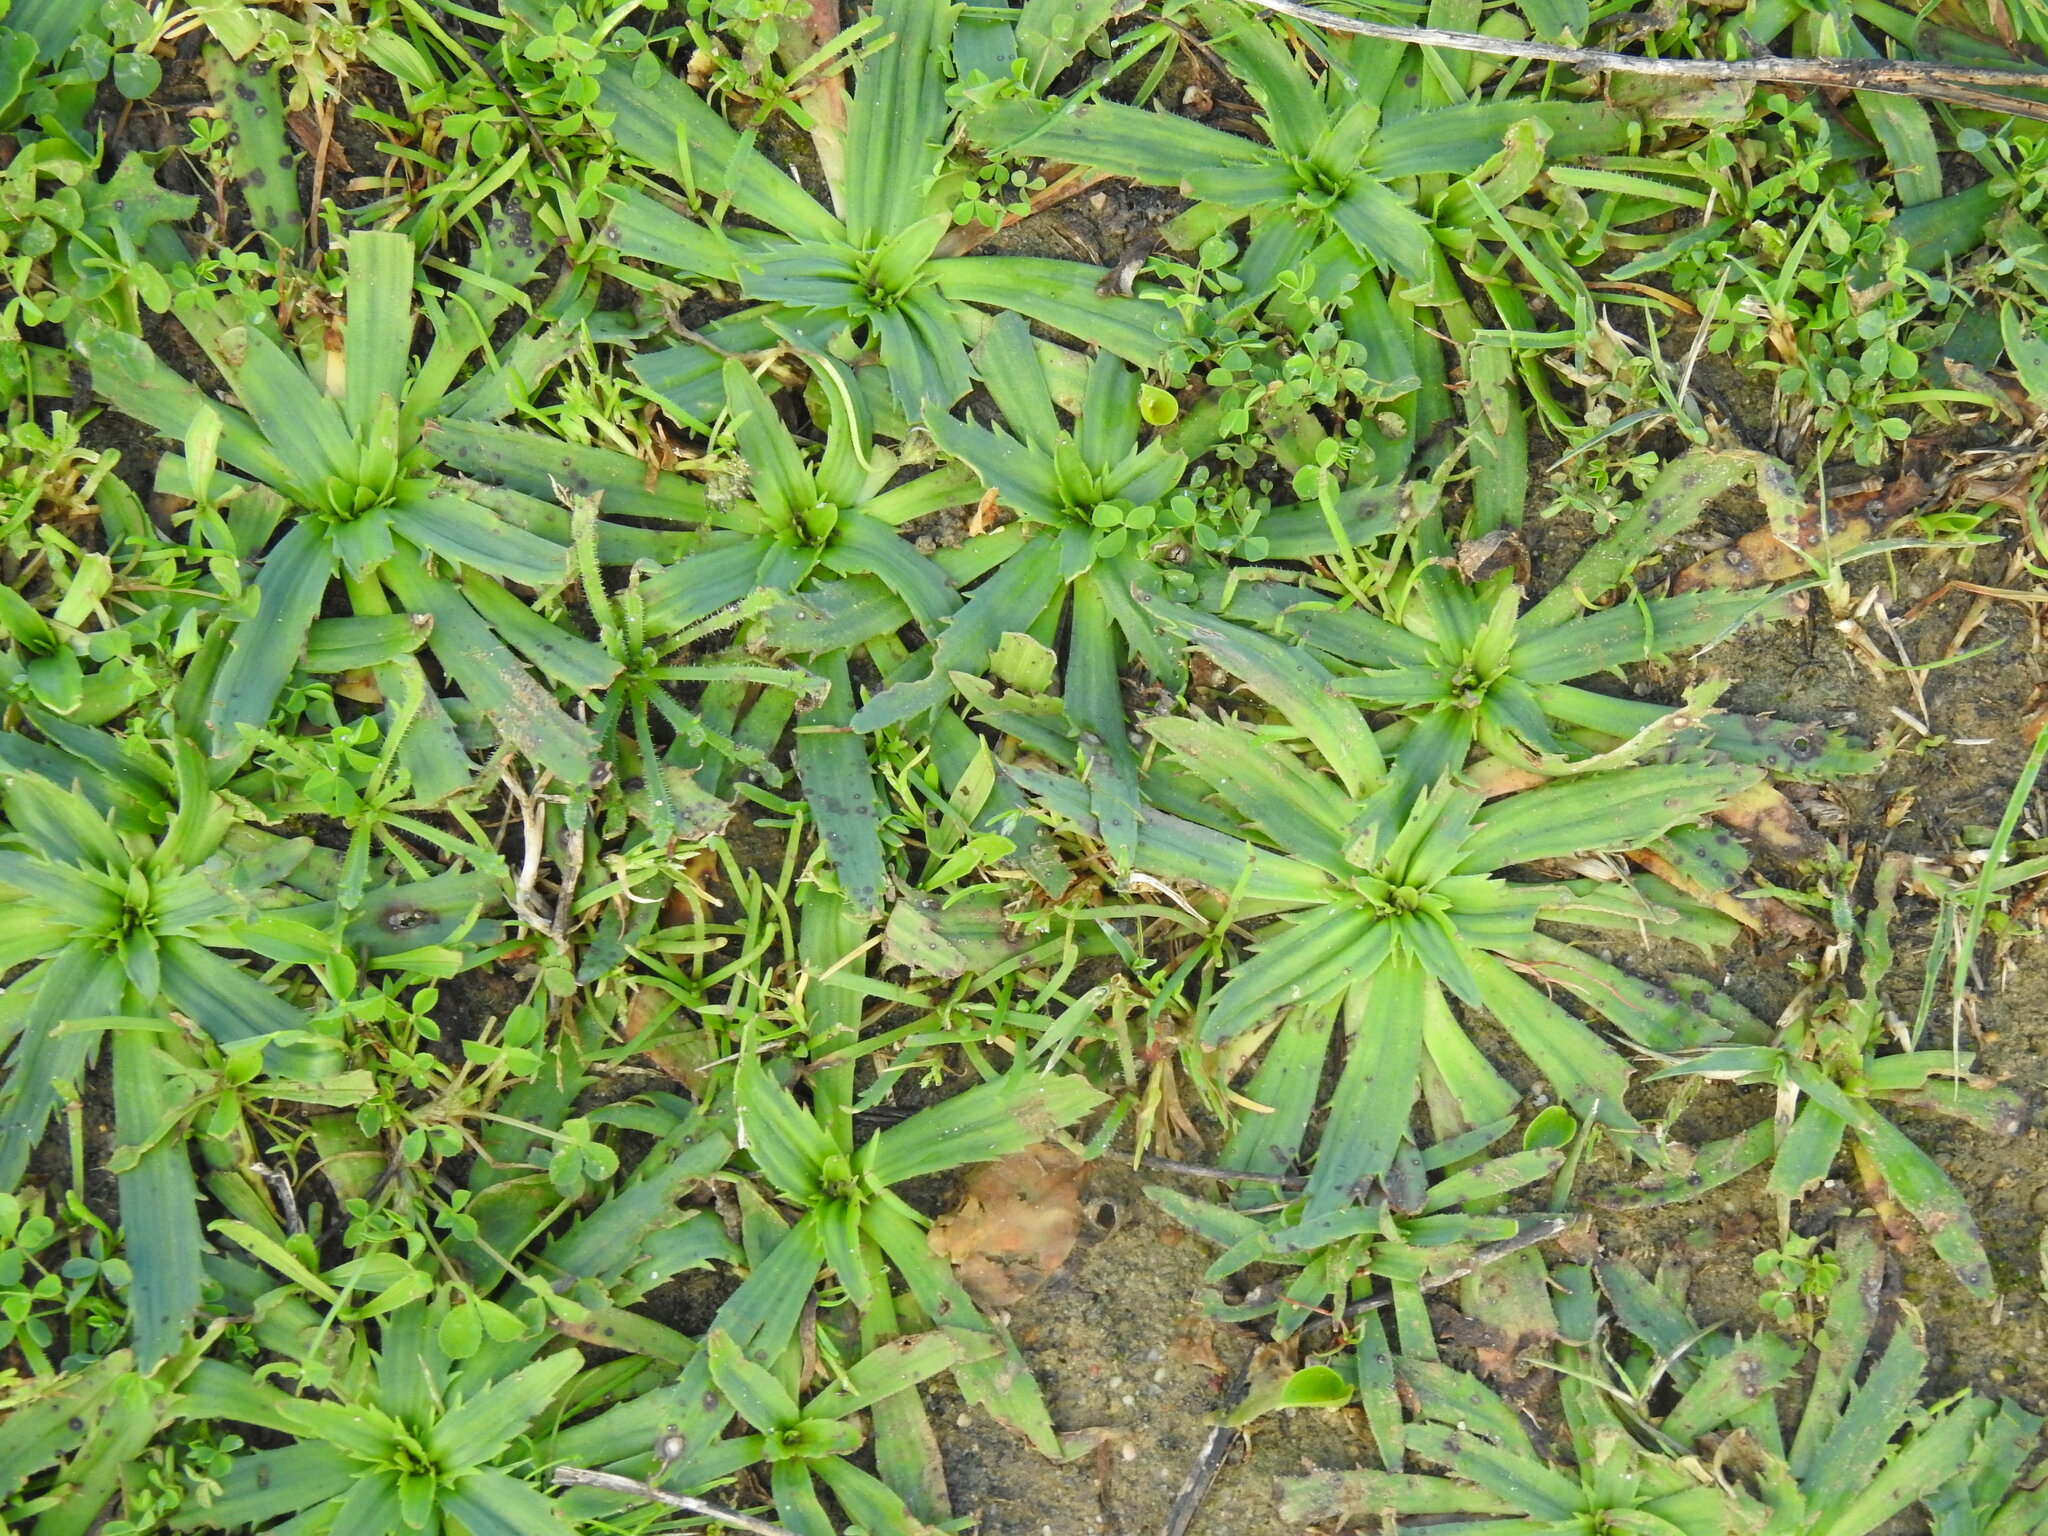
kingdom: Plantae
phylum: Tracheophyta
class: Magnoliopsida
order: Lamiales
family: Plantaginaceae
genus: Plantago
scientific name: Plantago serraria
